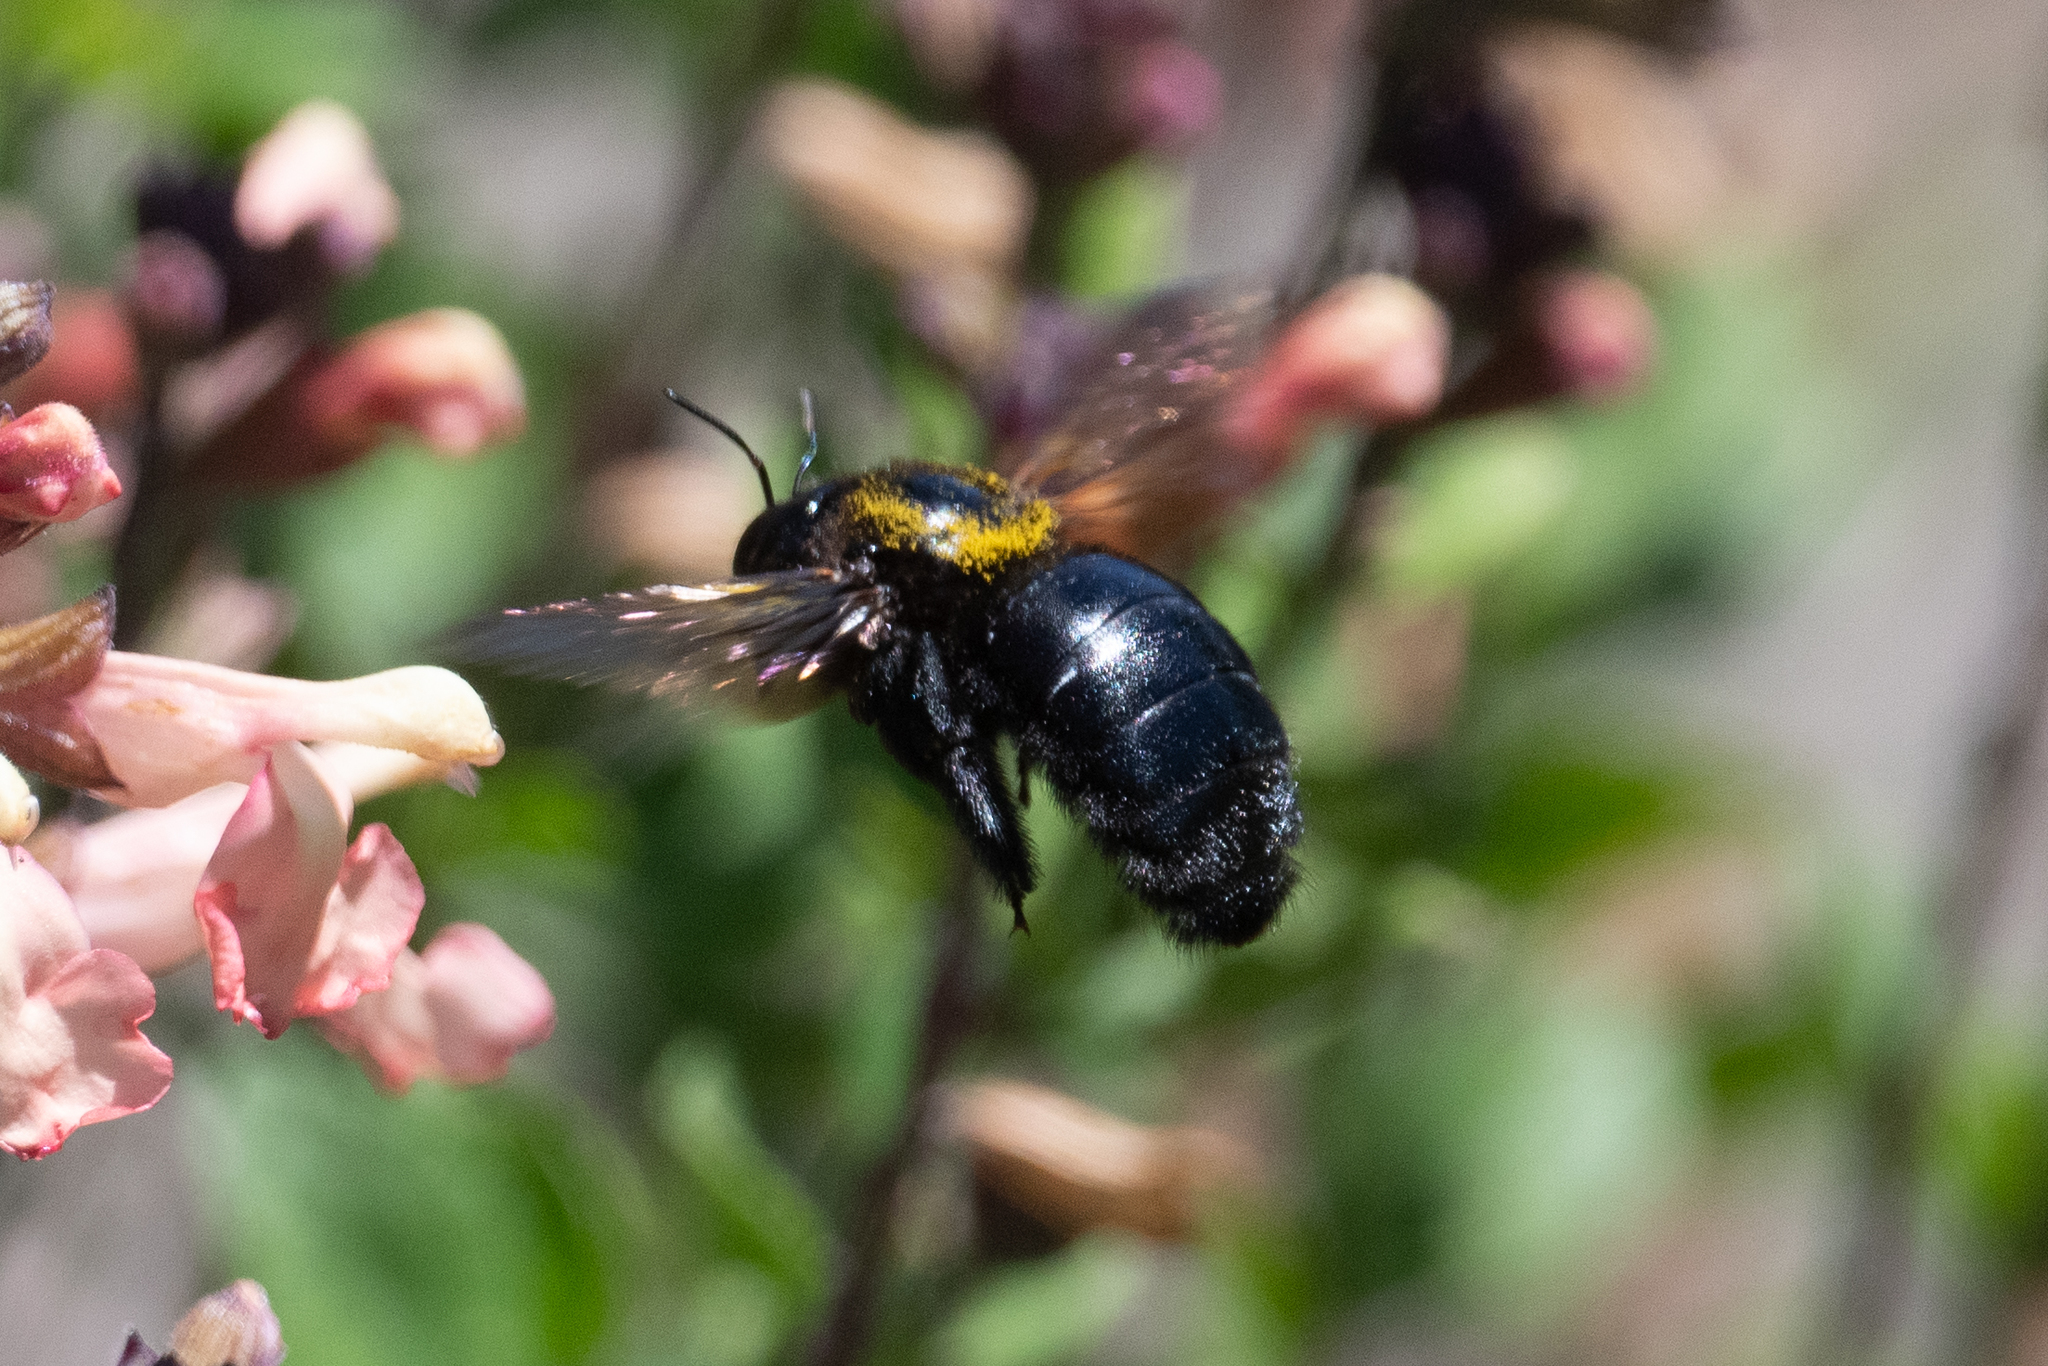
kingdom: Animalia
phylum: Arthropoda
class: Insecta
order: Hymenoptera
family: Apidae
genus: Xylocopa
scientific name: Xylocopa sonorina
